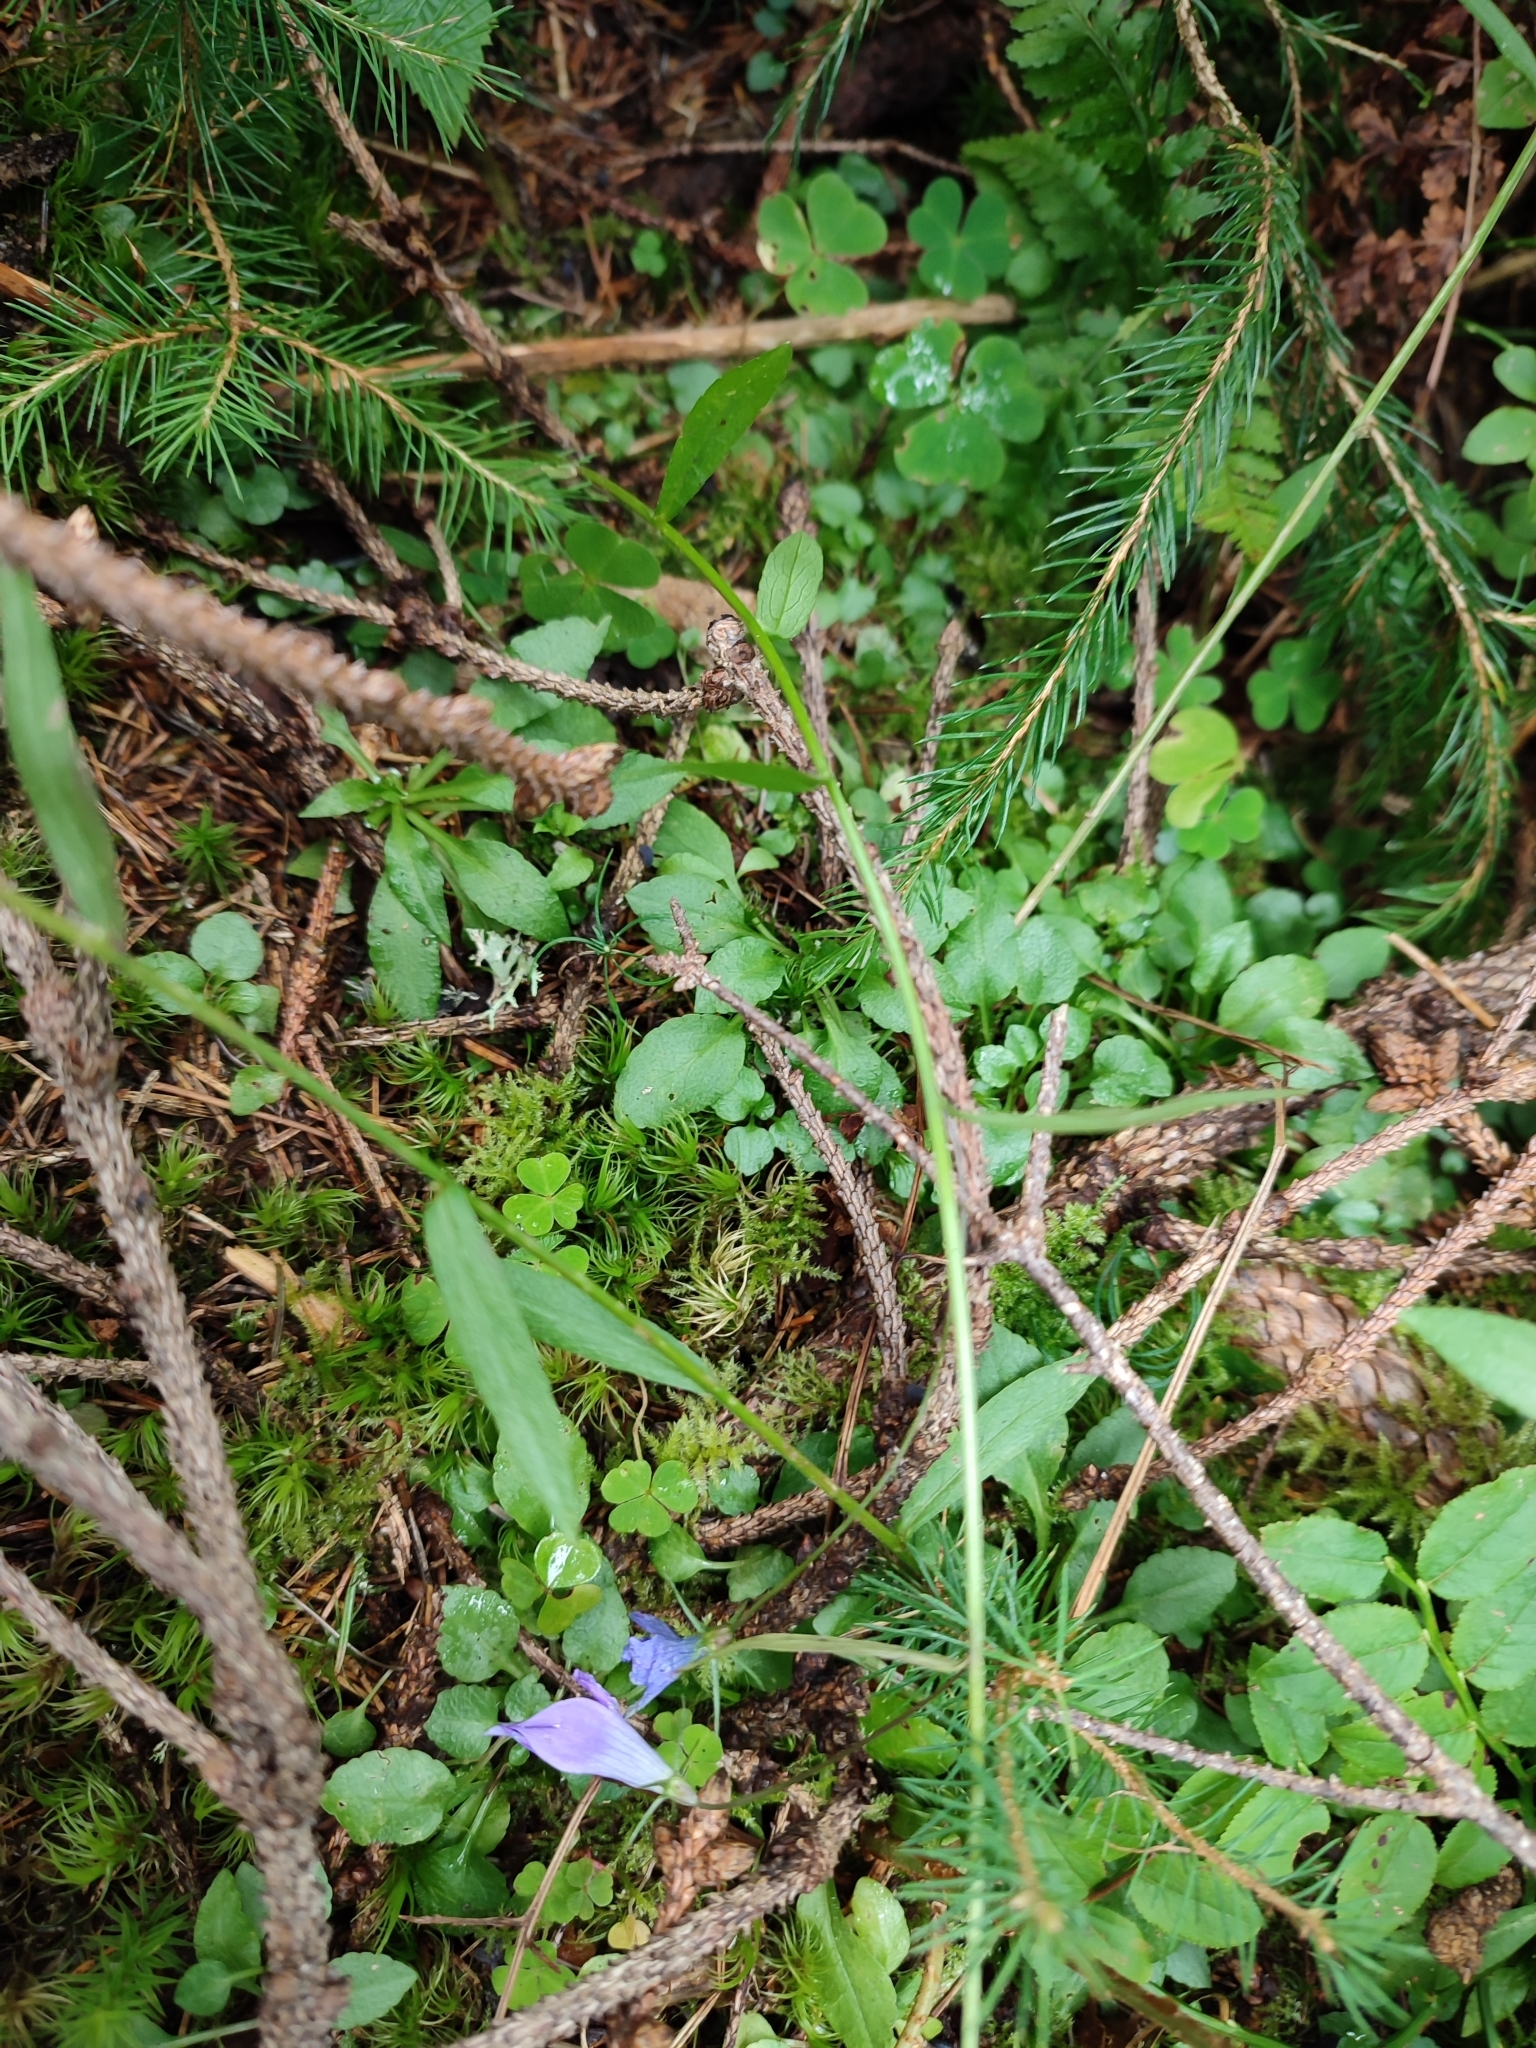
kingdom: Plantae
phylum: Tracheophyta
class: Magnoliopsida
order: Asterales
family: Campanulaceae
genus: Campanula
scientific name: Campanula persicifolia
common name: Peach-leaved bellflower
